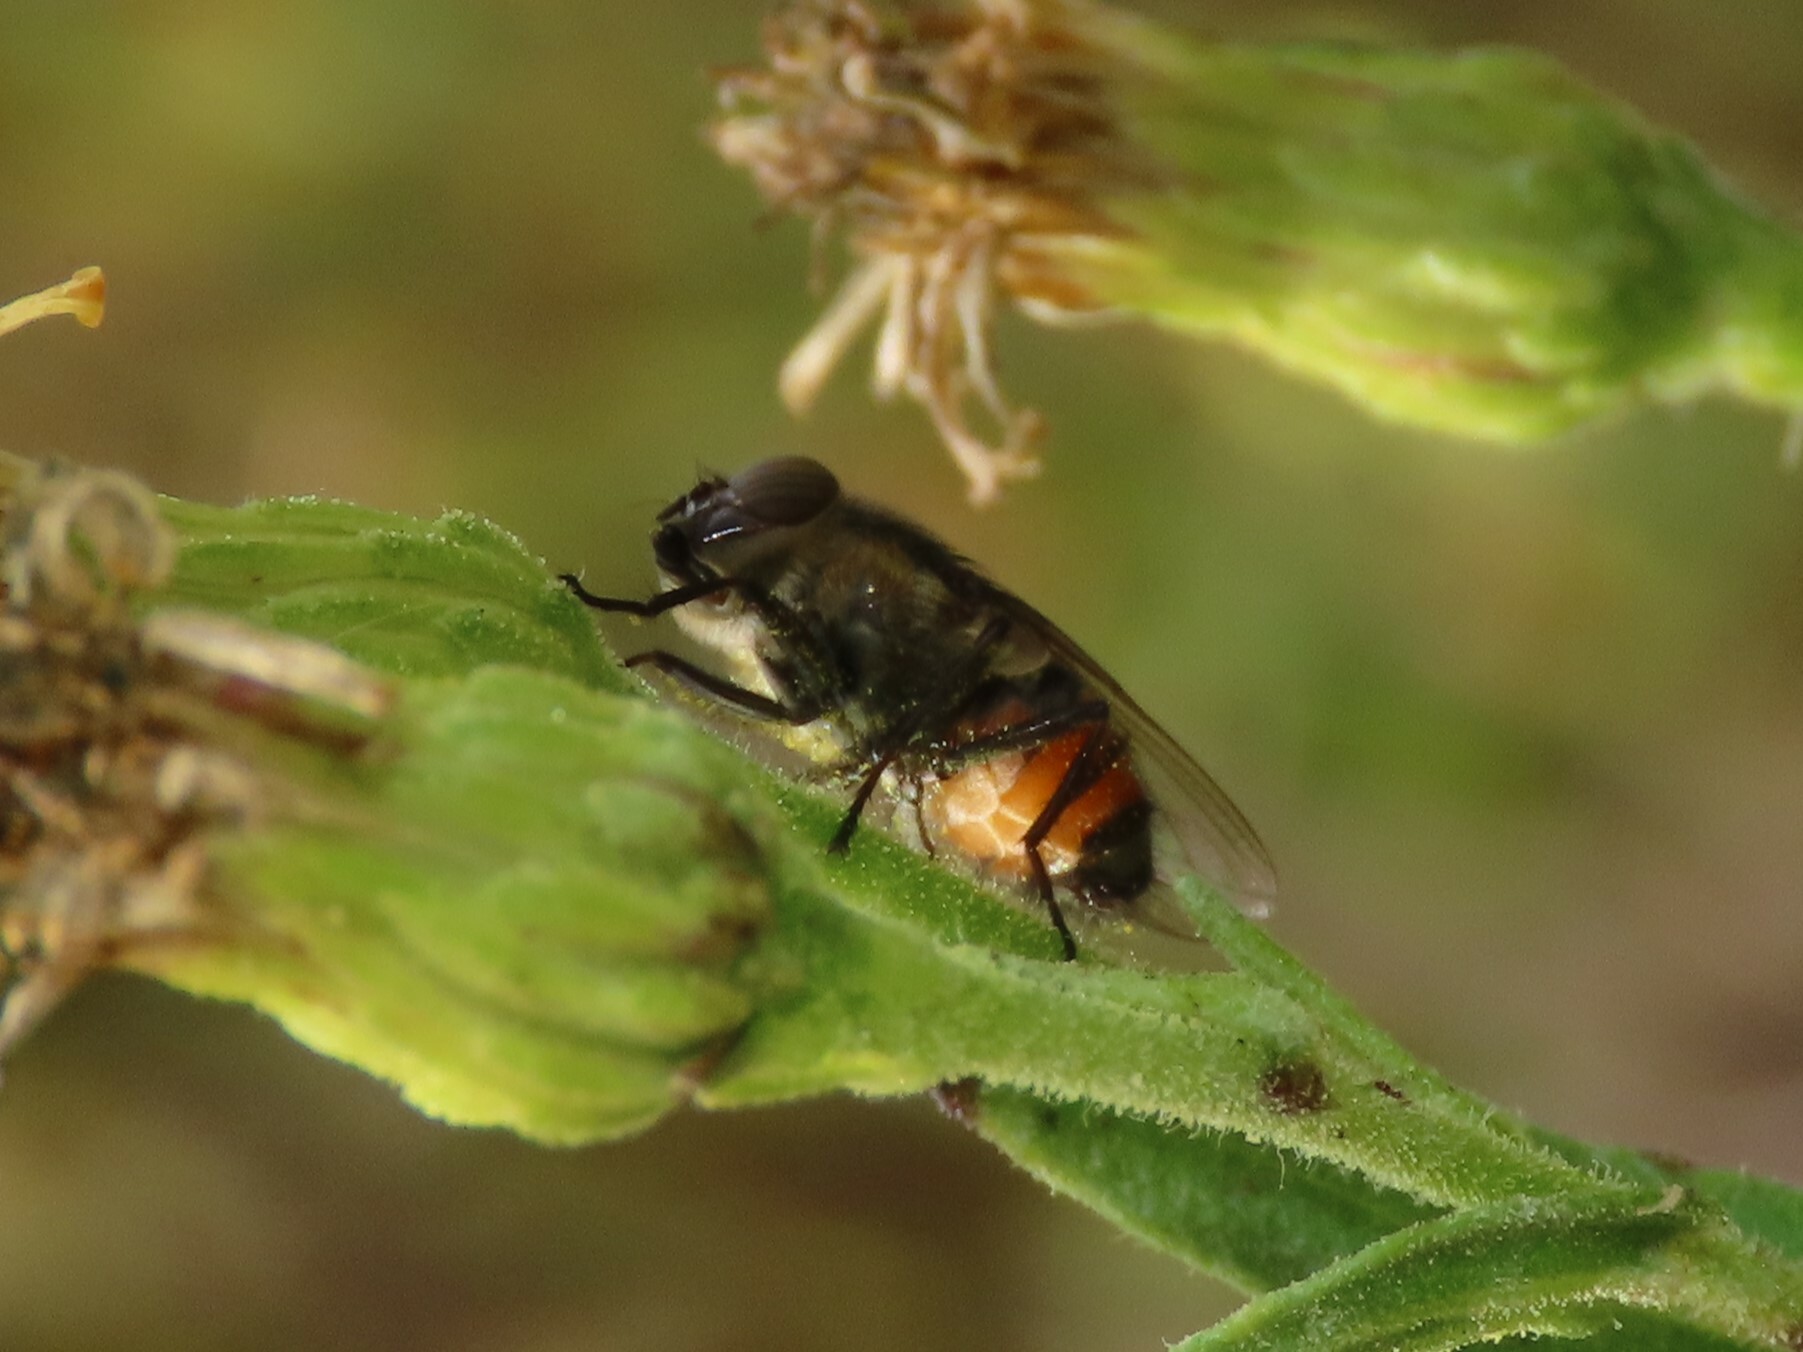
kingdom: Animalia
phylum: Arthropoda
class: Insecta
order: Diptera
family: Calliphoridae
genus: Stomorhina
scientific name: Stomorhina lunata
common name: Locust blowfly
